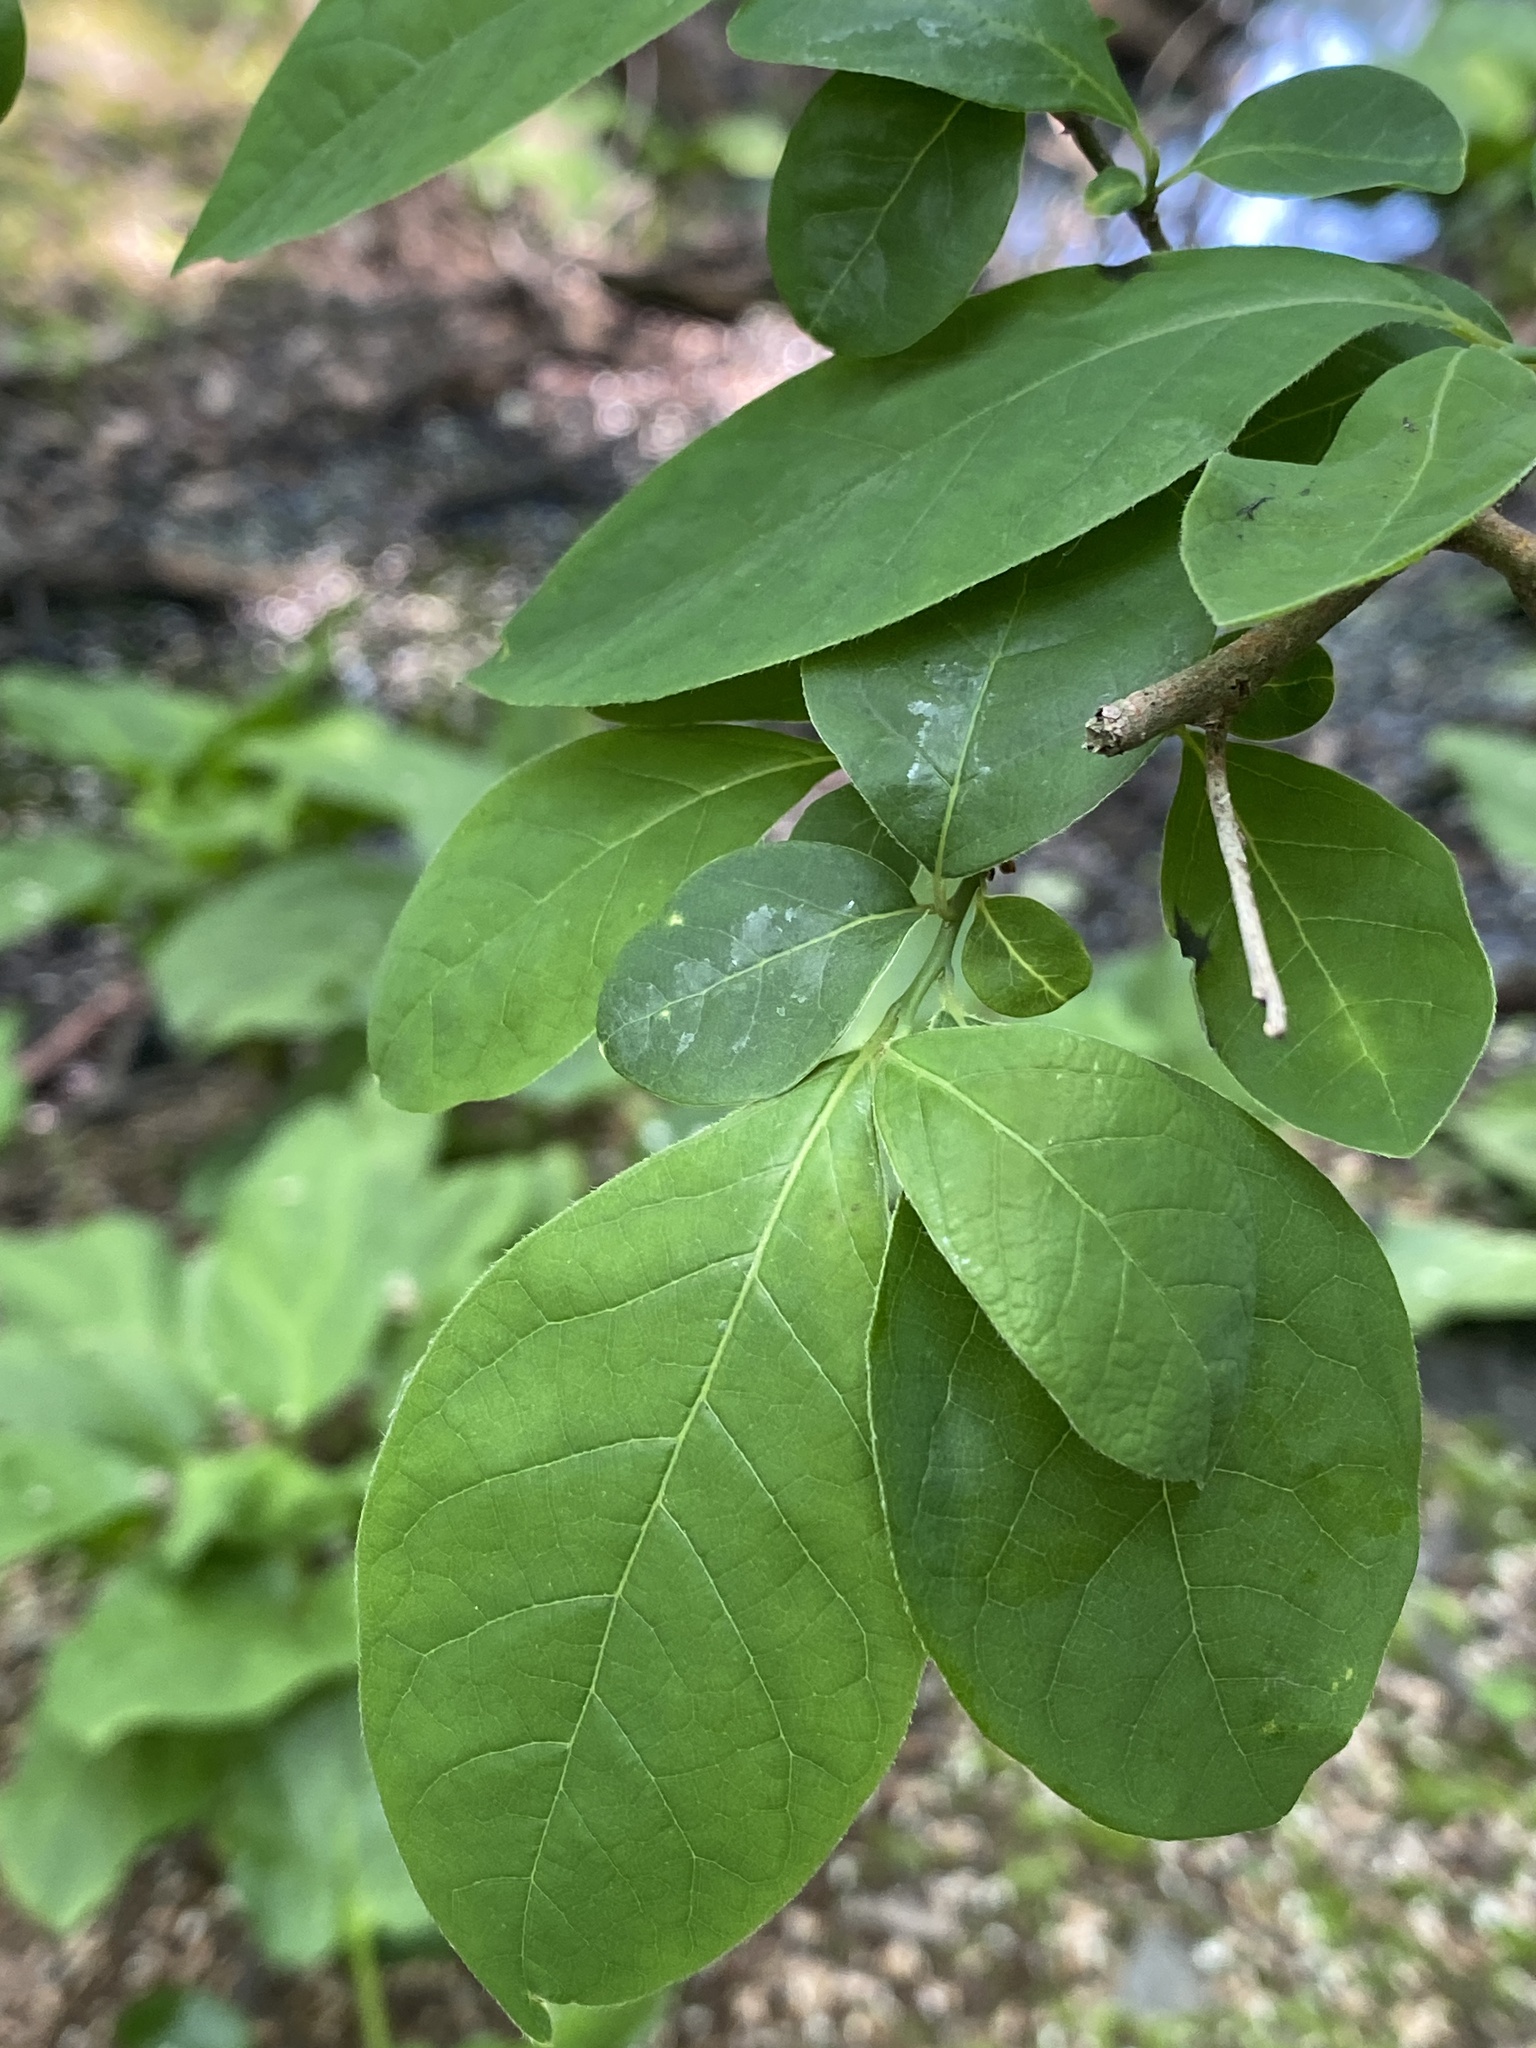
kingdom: Plantae
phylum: Tracheophyta
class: Magnoliopsida
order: Laurales
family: Lauraceae
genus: Lindera
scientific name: Lindera benzoin
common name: Spicebush
